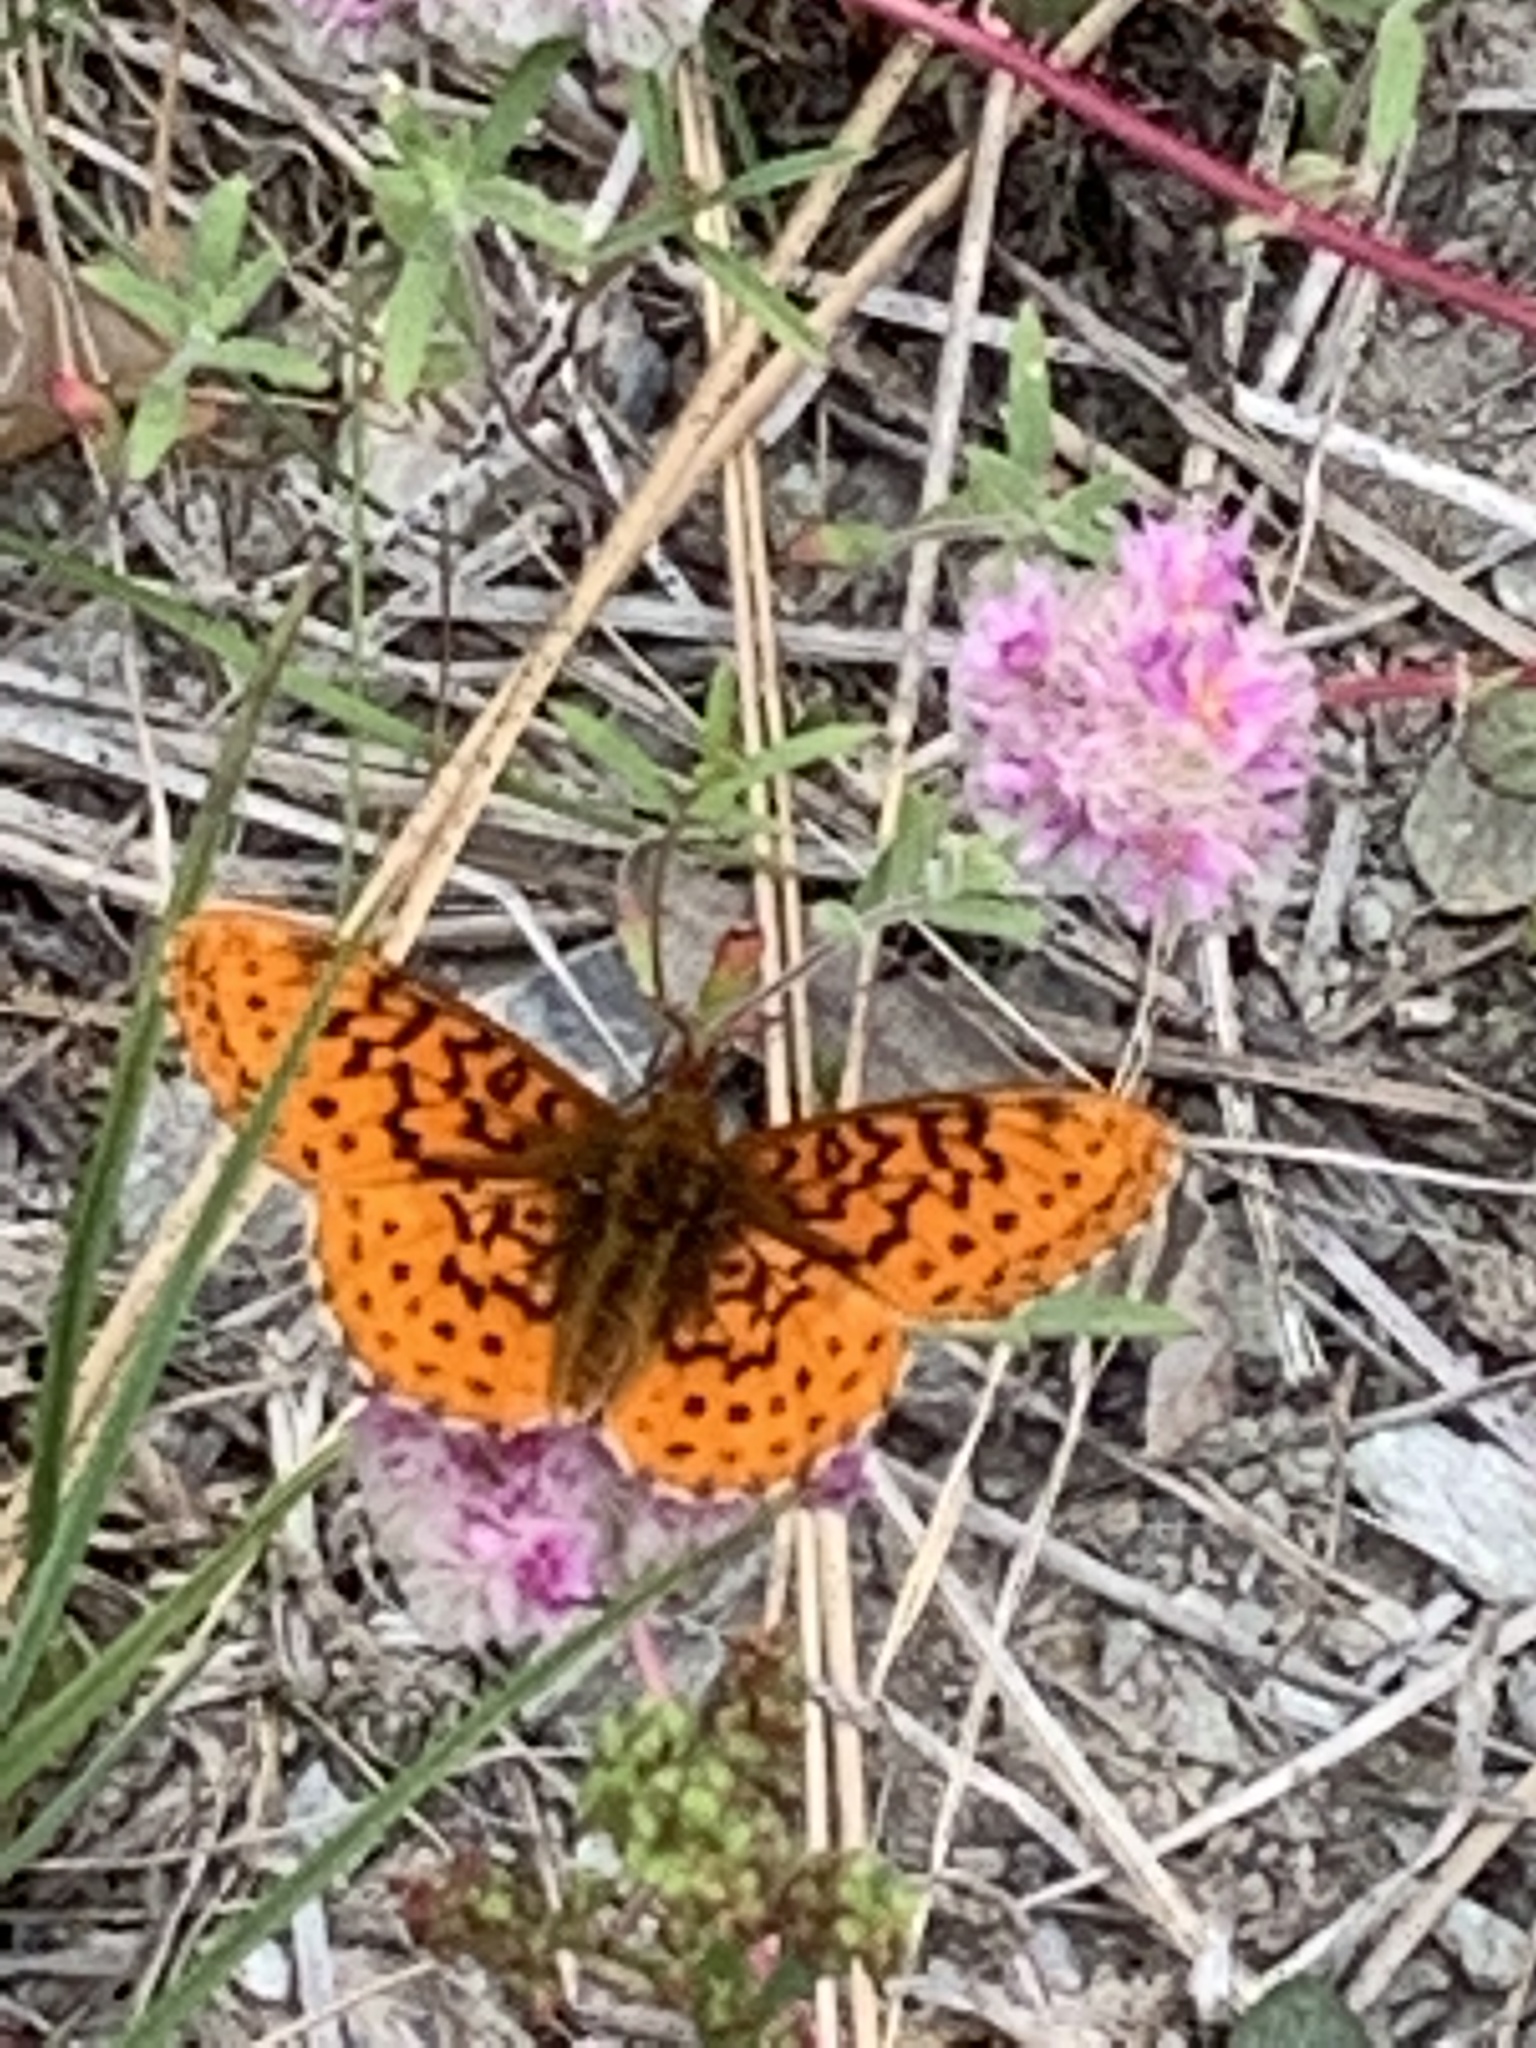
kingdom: Animalia
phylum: Arthropoda
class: Insecta
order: Lepidoptera
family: Nymphalidae
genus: Boloria
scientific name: Boloria epithore
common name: Pacific fritillary
